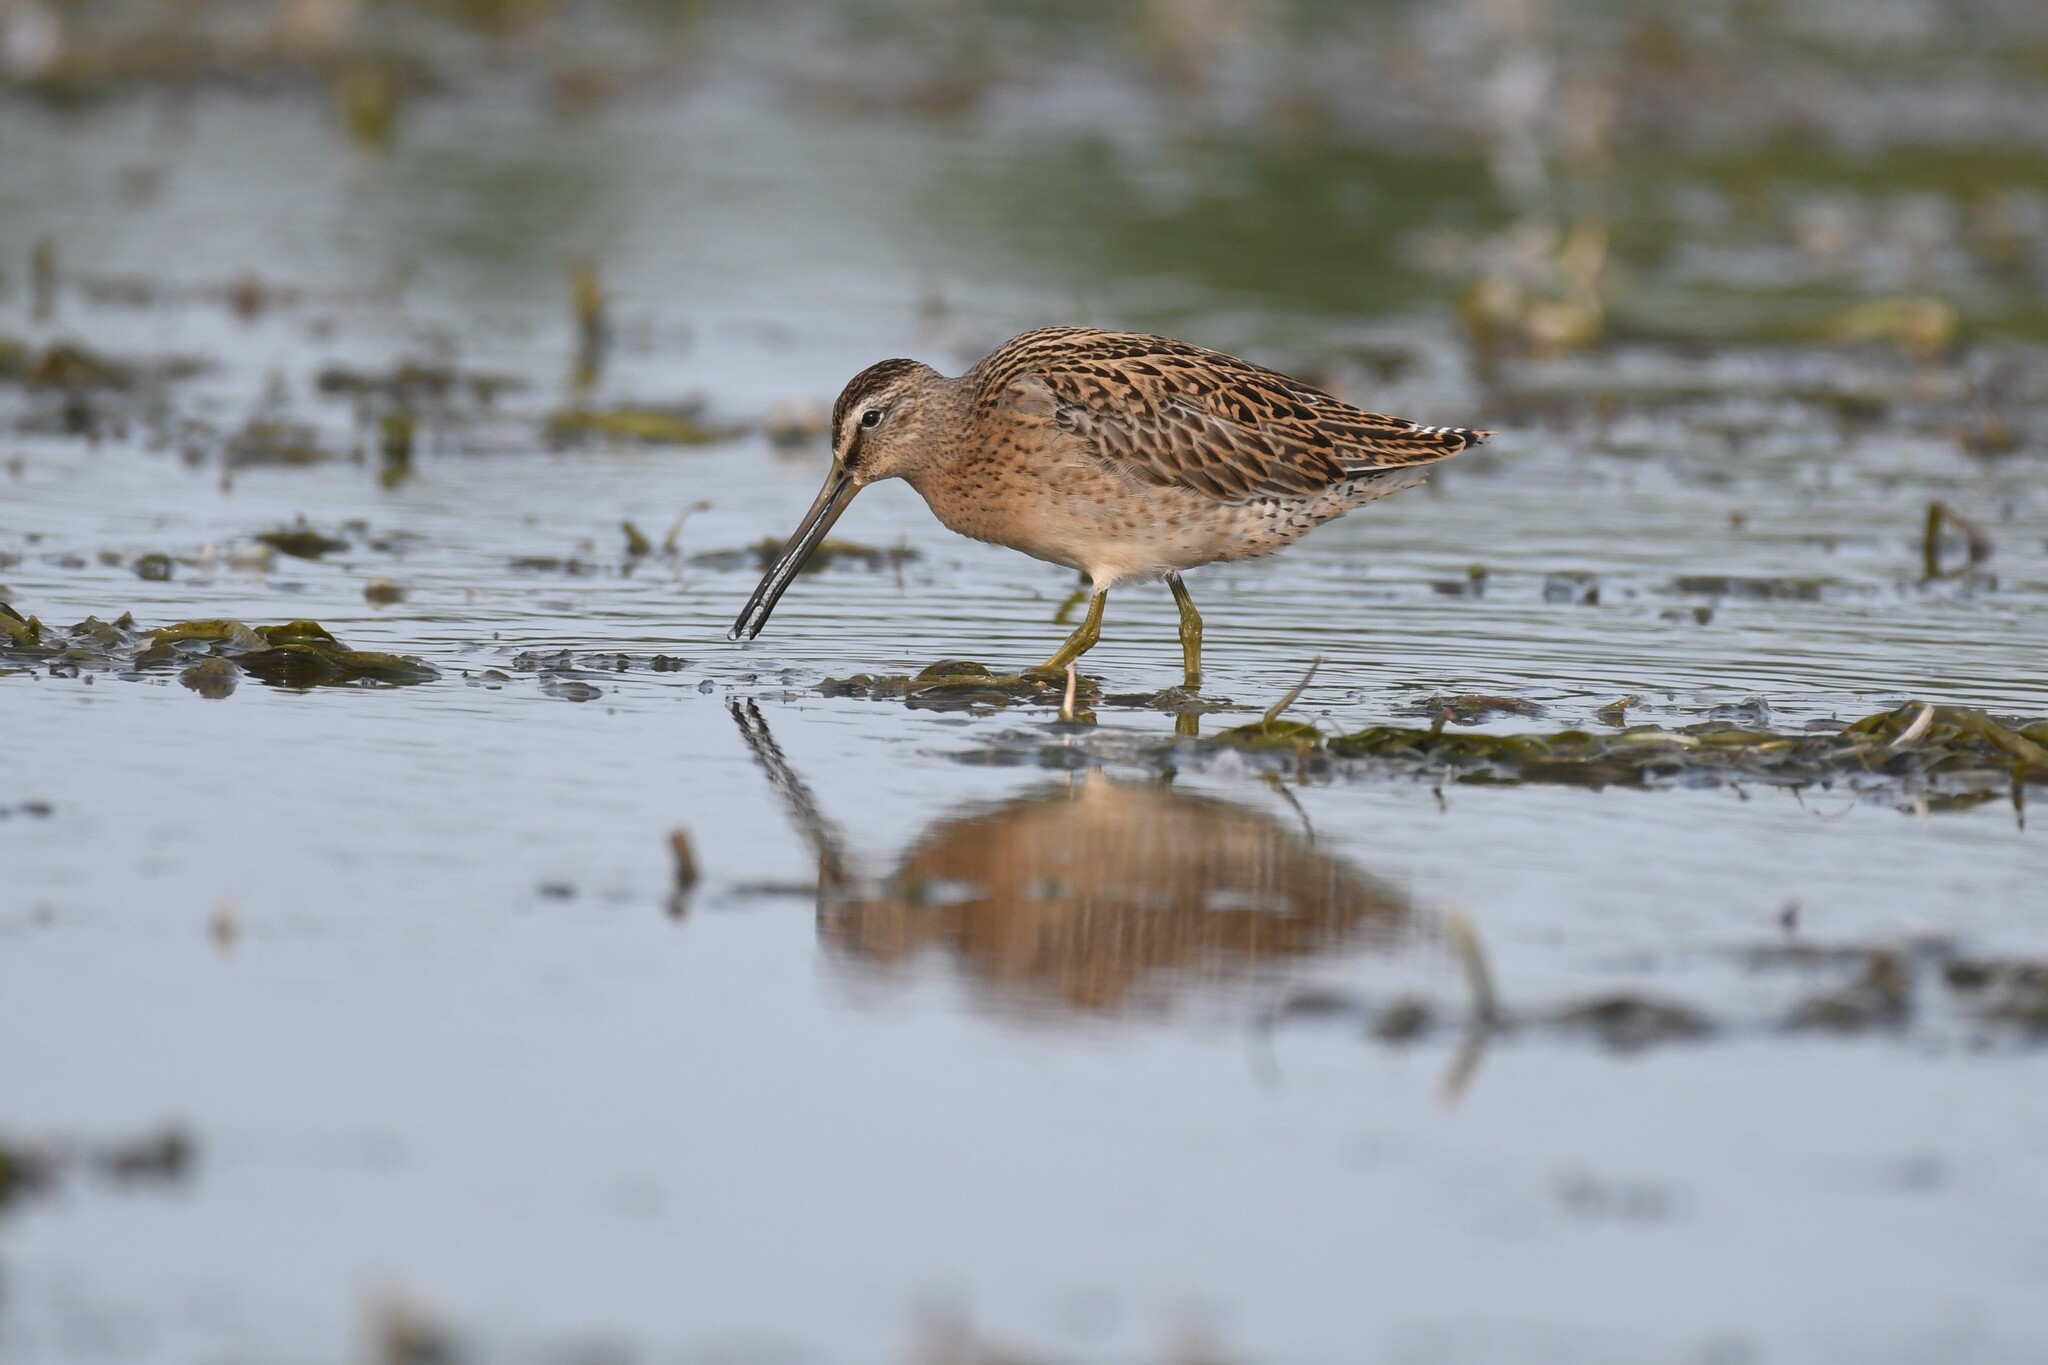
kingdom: Animalia
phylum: Chordata
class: Aves
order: Charadriiformes
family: Scolopacidae
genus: Limnodromus
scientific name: Limnodromus griseus
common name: Short-billed dowitcher
